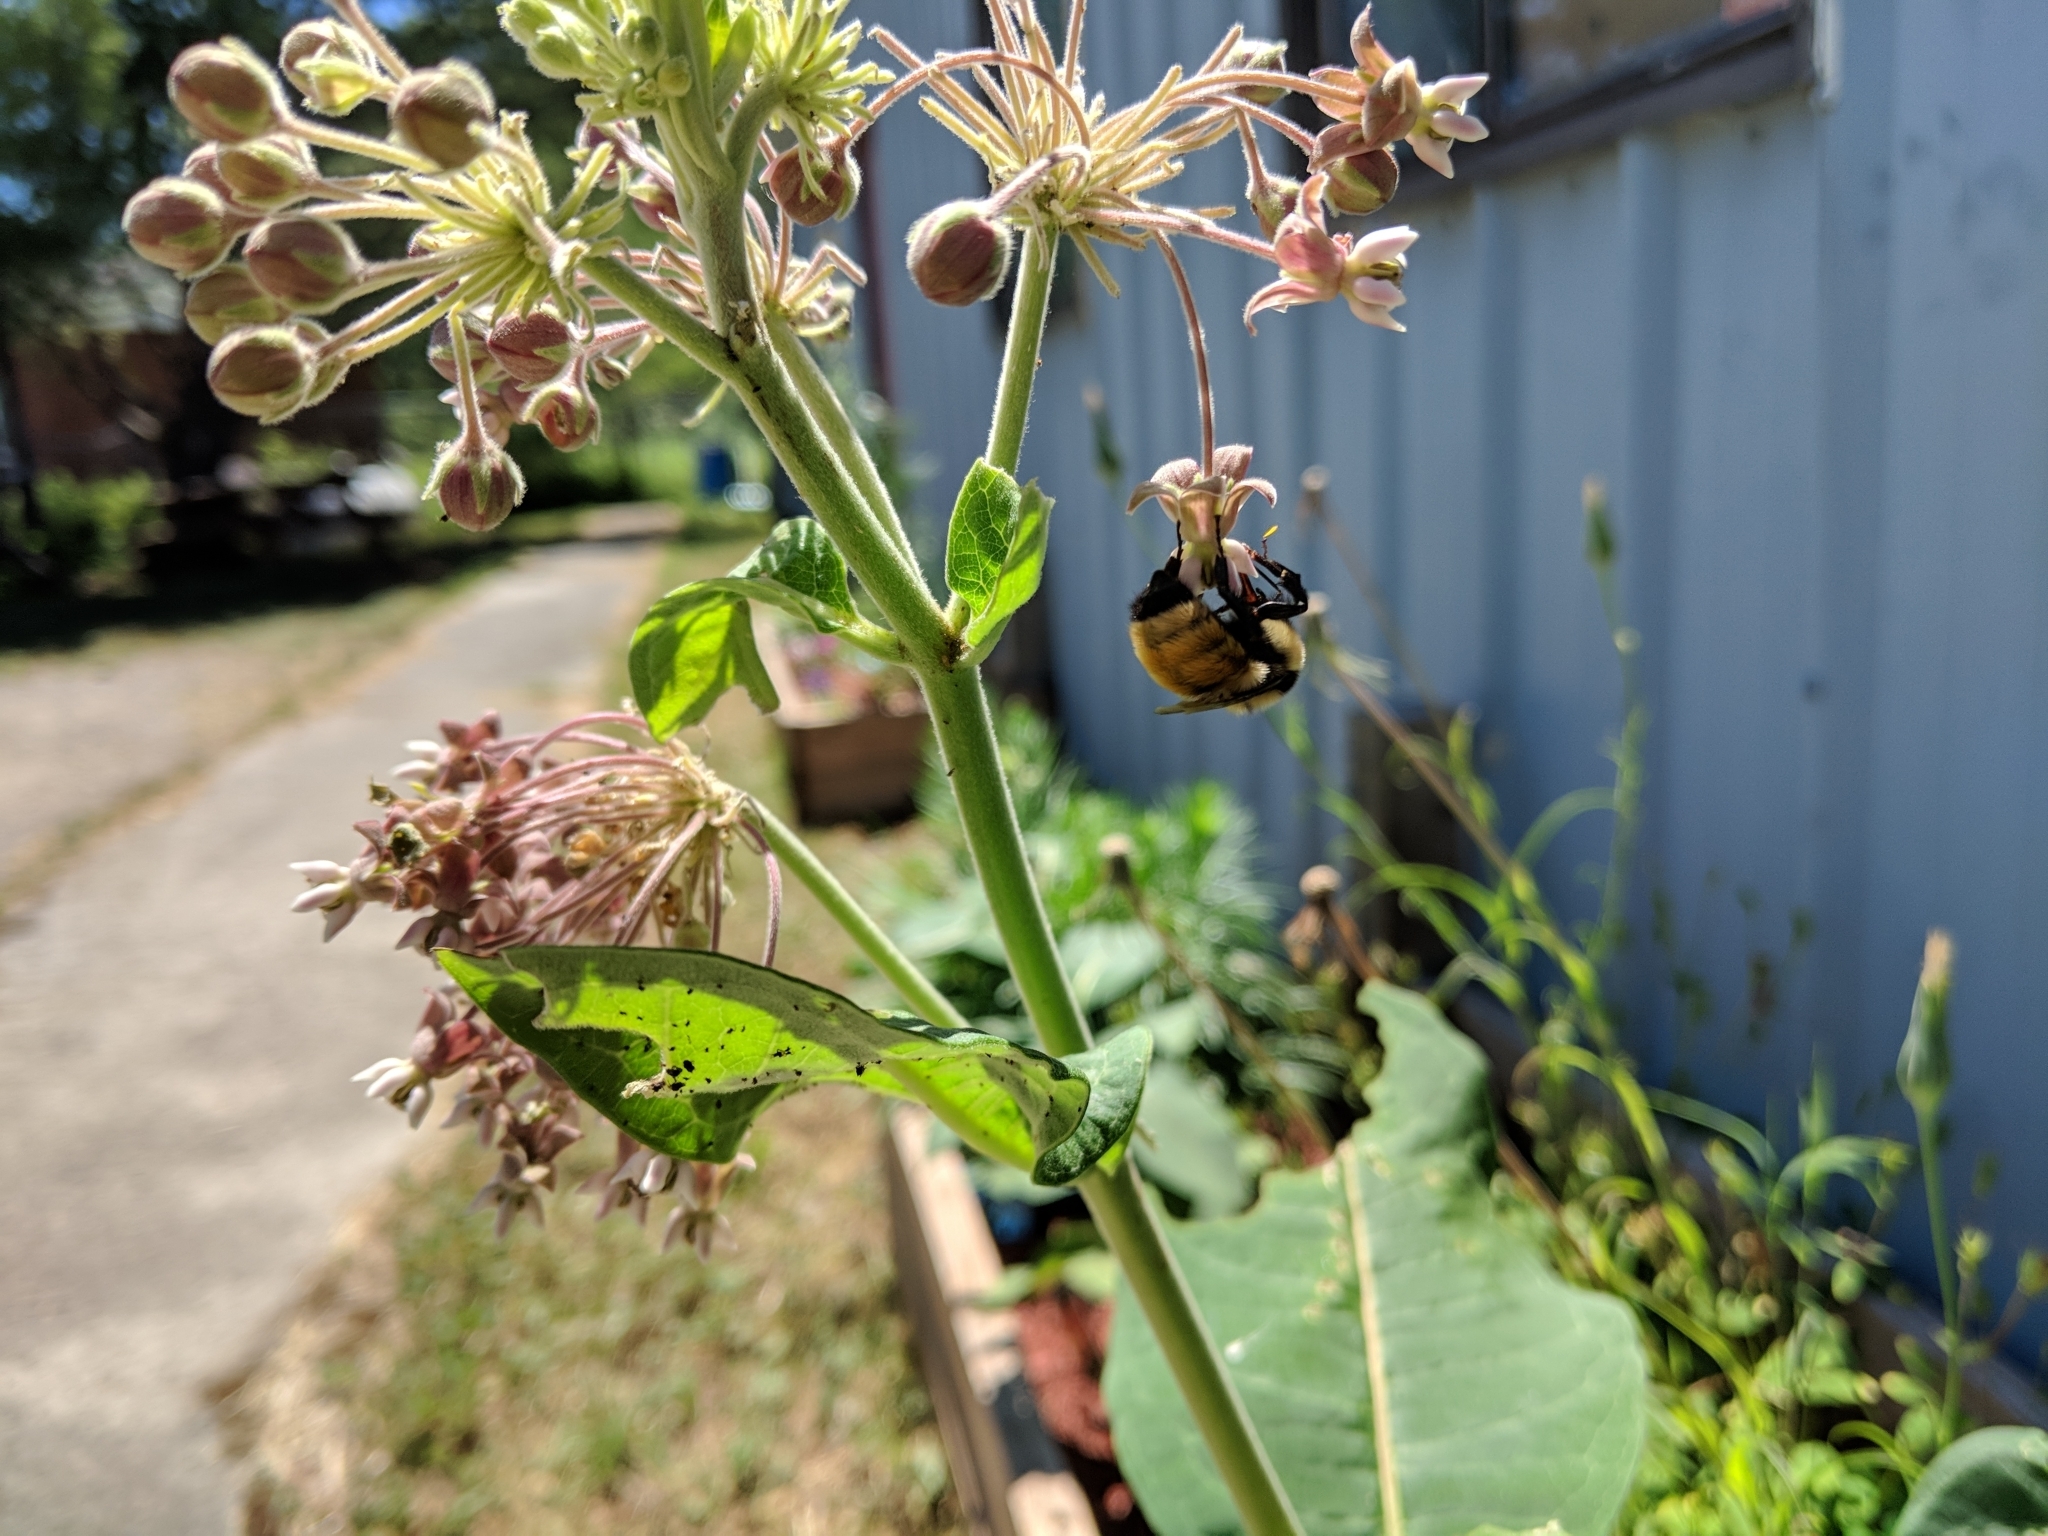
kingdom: Animalia
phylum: Arthropoda
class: Insecta
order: Hymenoptera
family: Apidae
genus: Bombus
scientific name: Bombus ternarius
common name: Tri-colored bumble bee
